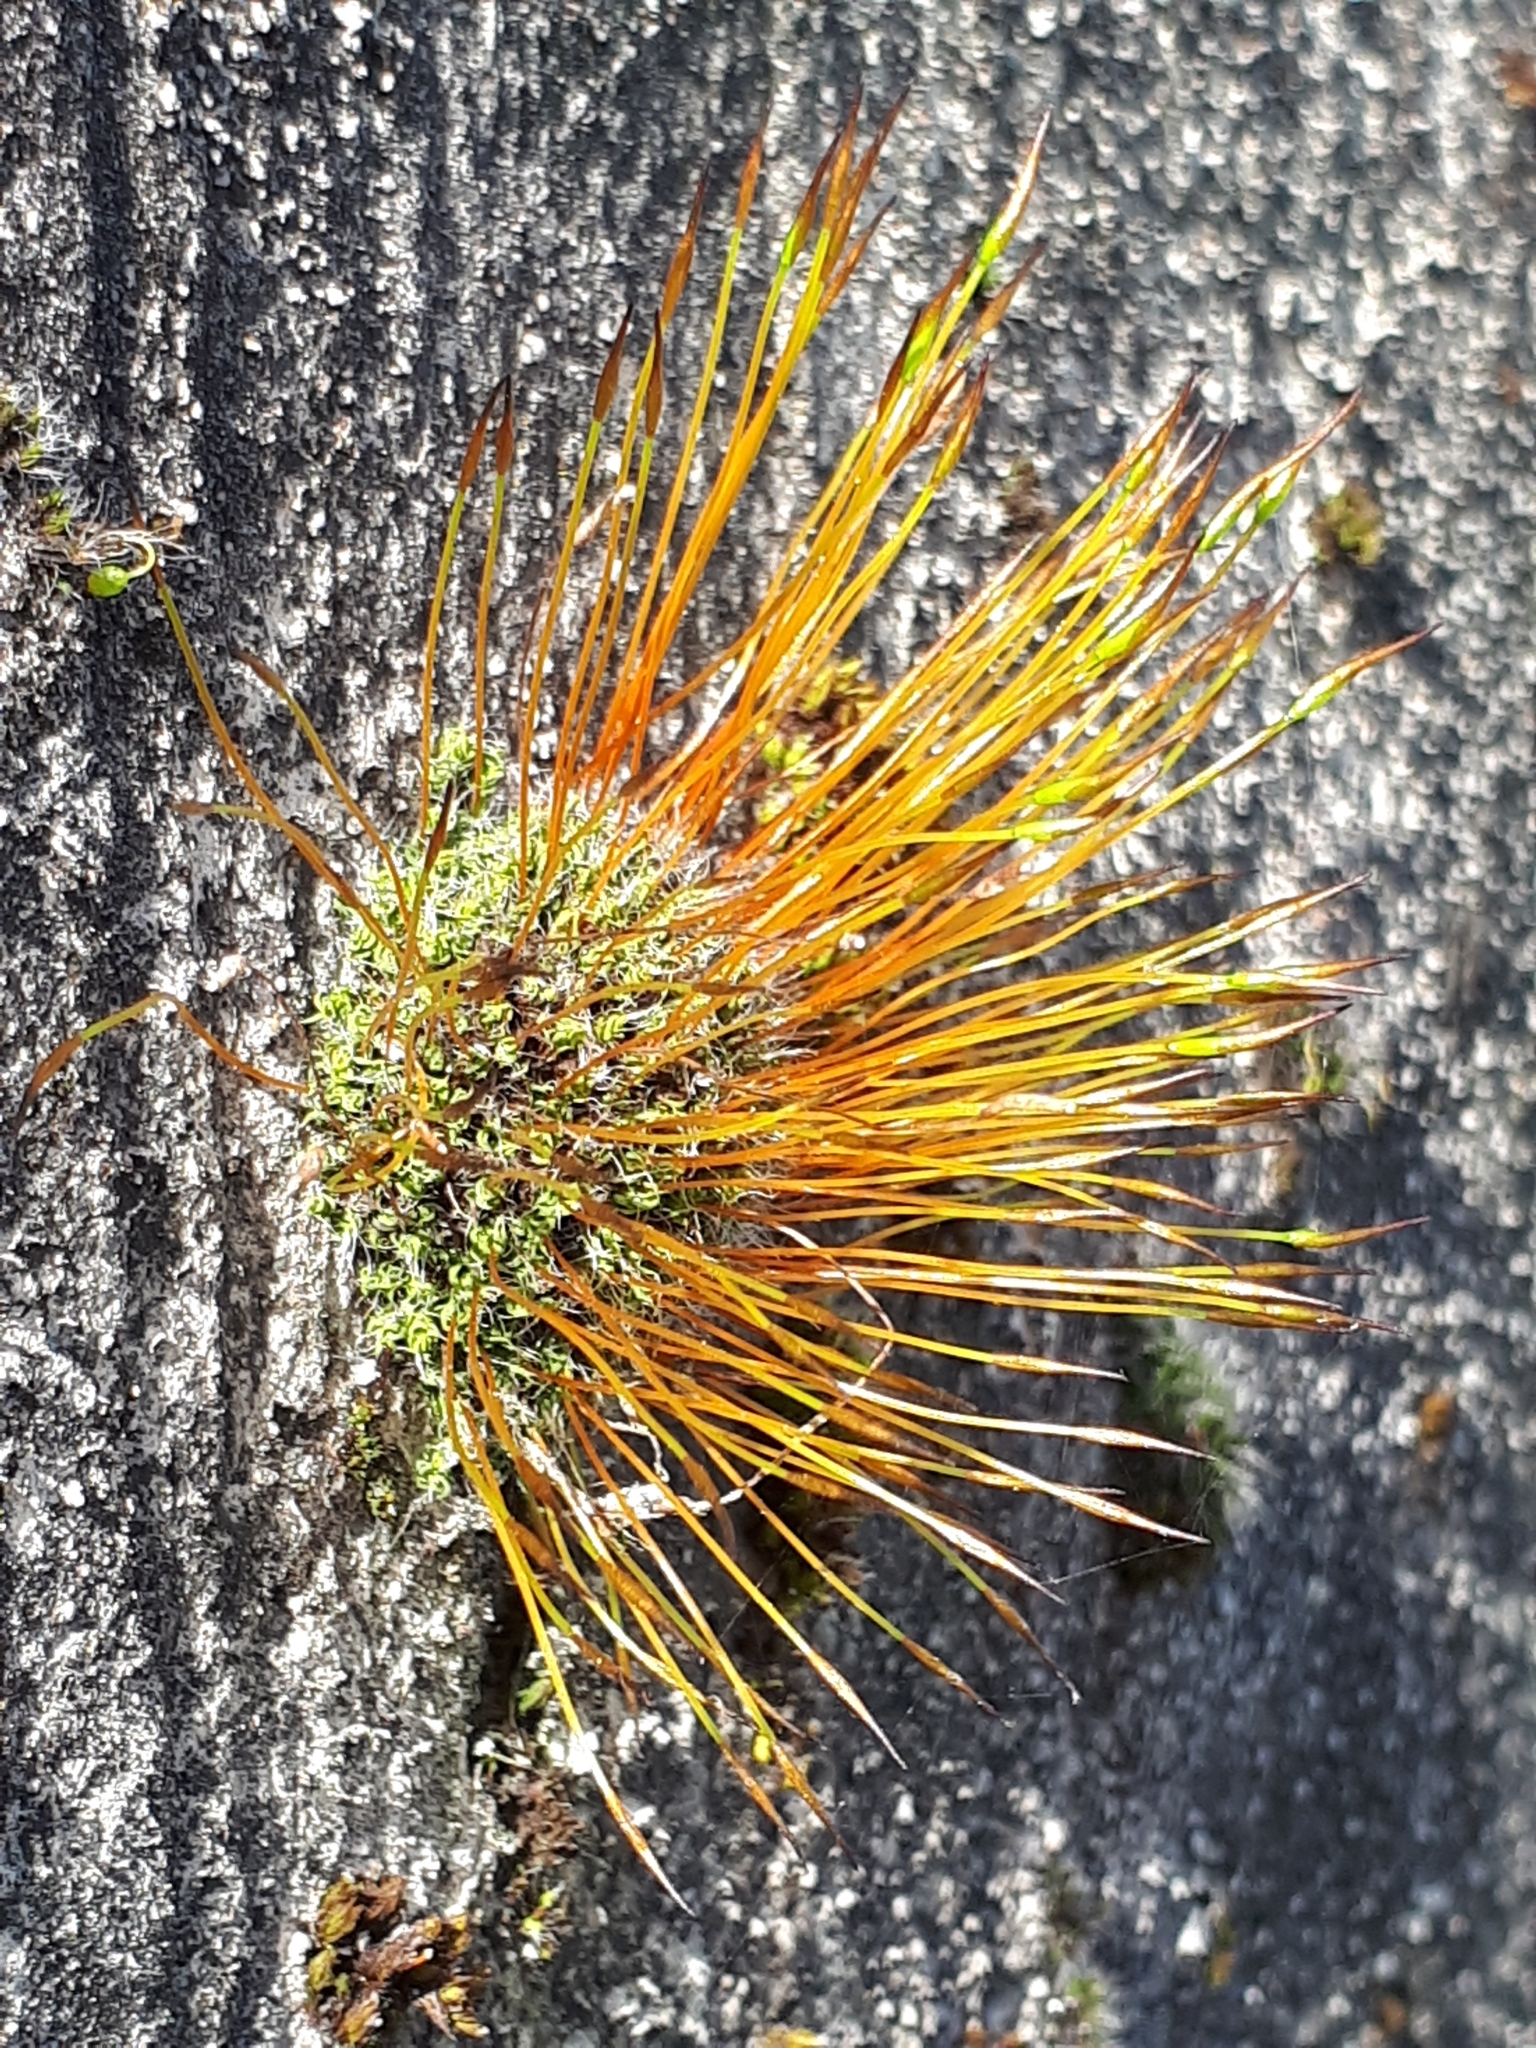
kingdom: Plantae
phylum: Bryophyta
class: Bryopsida
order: Pottiales
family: Pottiaceae
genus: Tortula
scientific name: Tortula muralis
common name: Wall screw-moss
